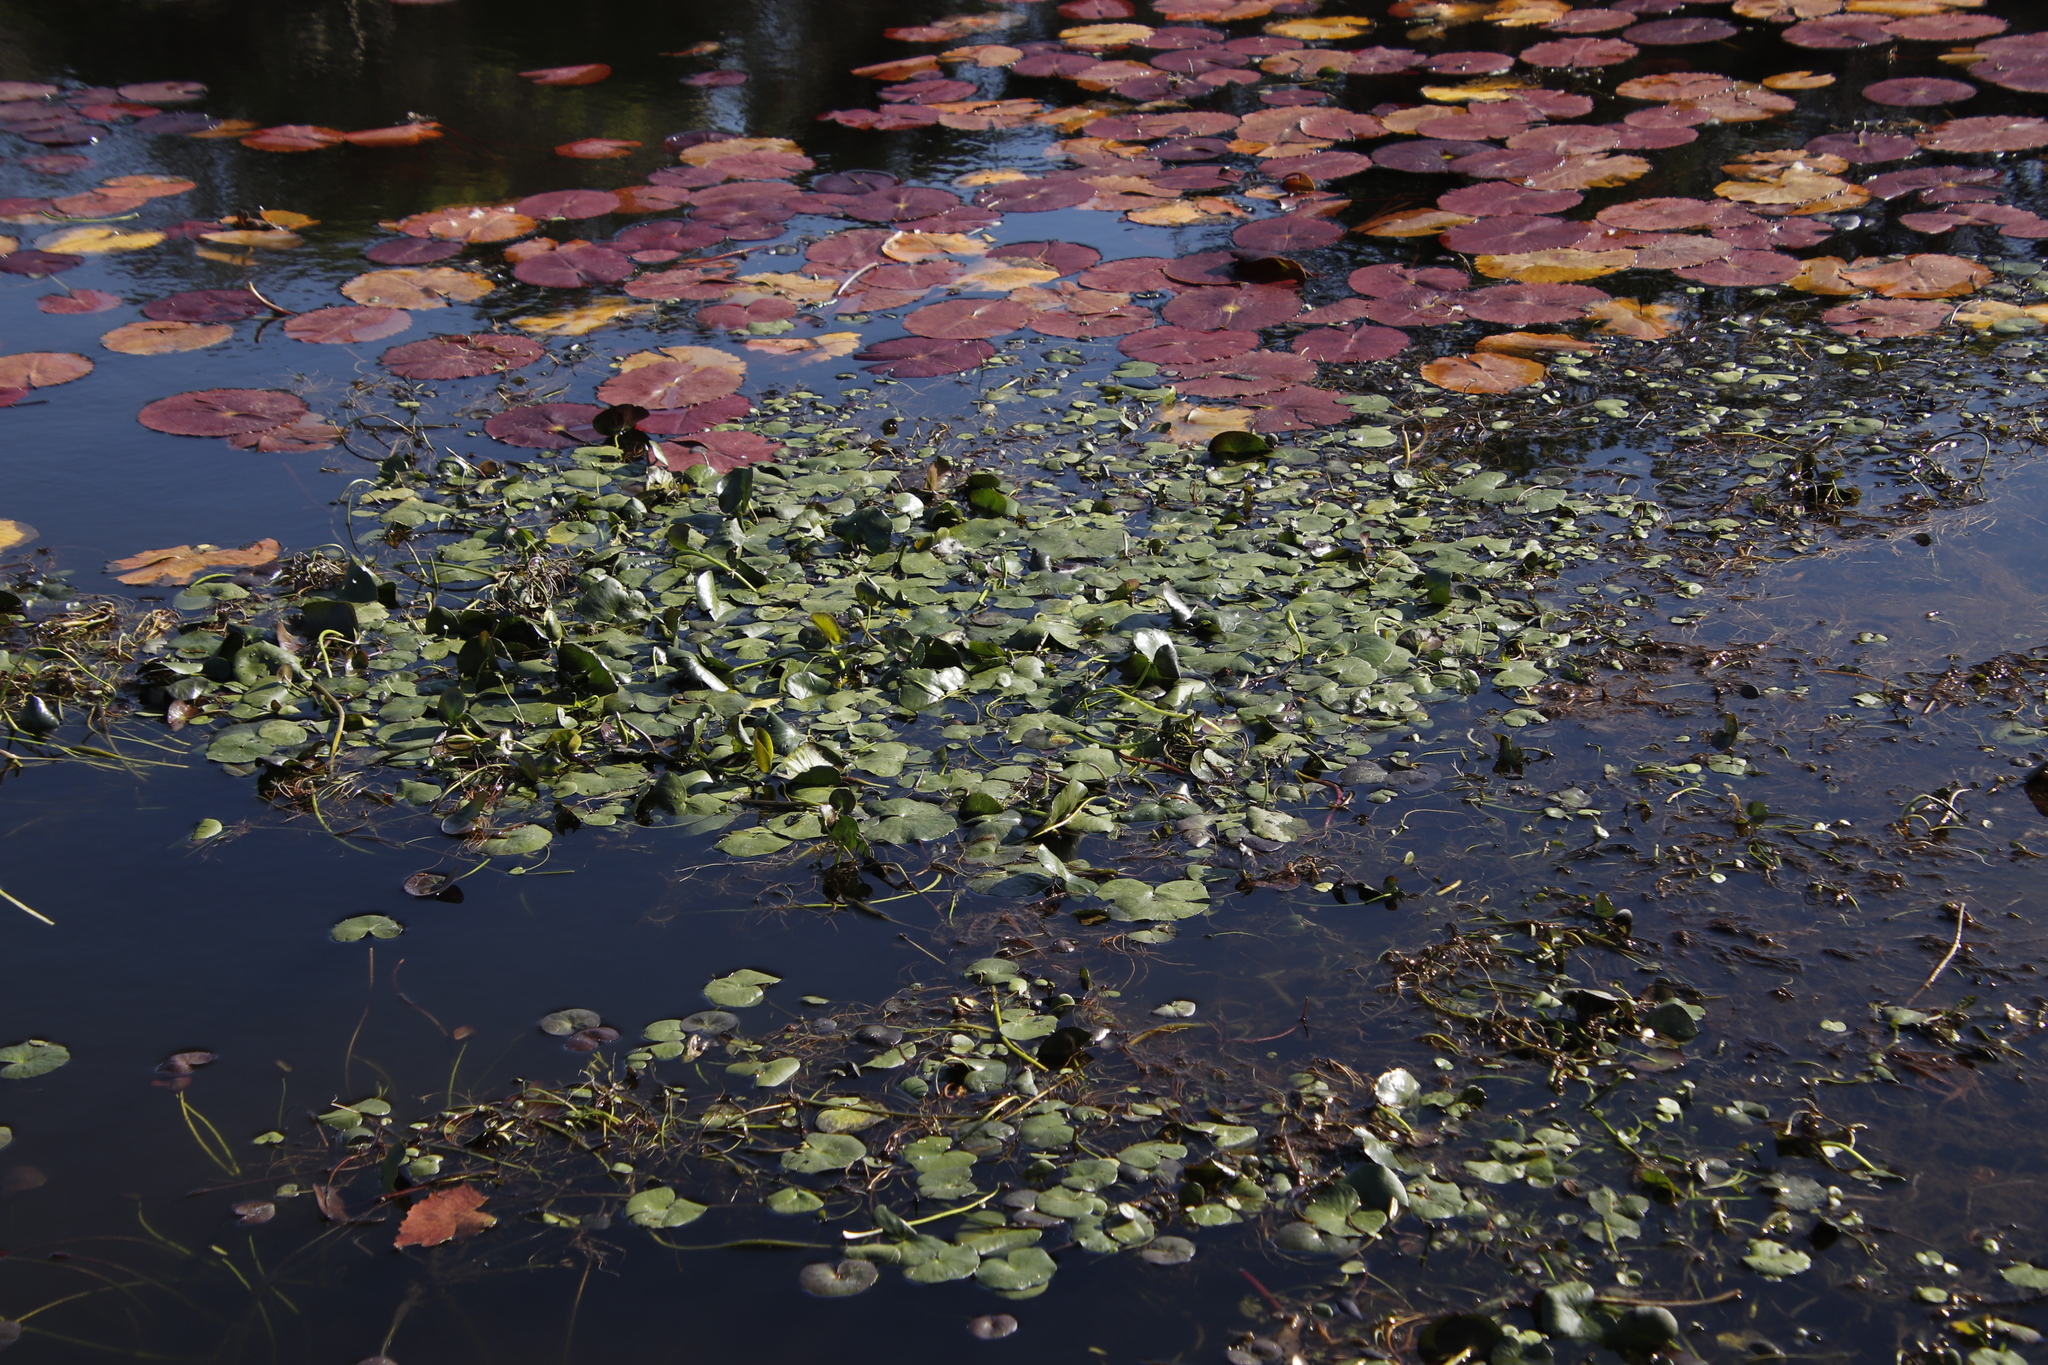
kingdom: Plantae
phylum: Tracheophyta
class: Magnoliopsida
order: Asterales
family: Menyanthaceae
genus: Nymphoides
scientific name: Nymphoides thunbergiana
